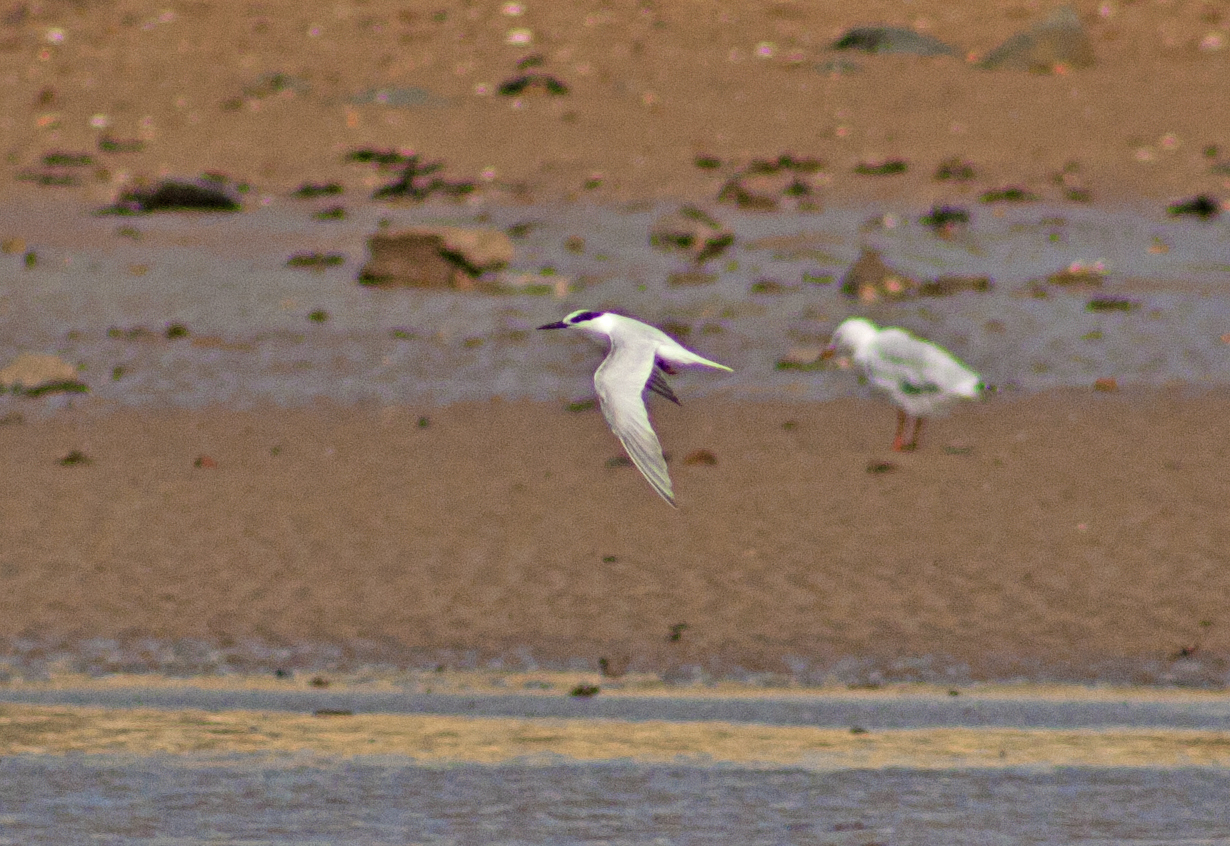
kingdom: Animalia
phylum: Chordata
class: Aves
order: Charadriiformes
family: Laridae
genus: Sternula
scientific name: Sternula albifrons
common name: Little tern
